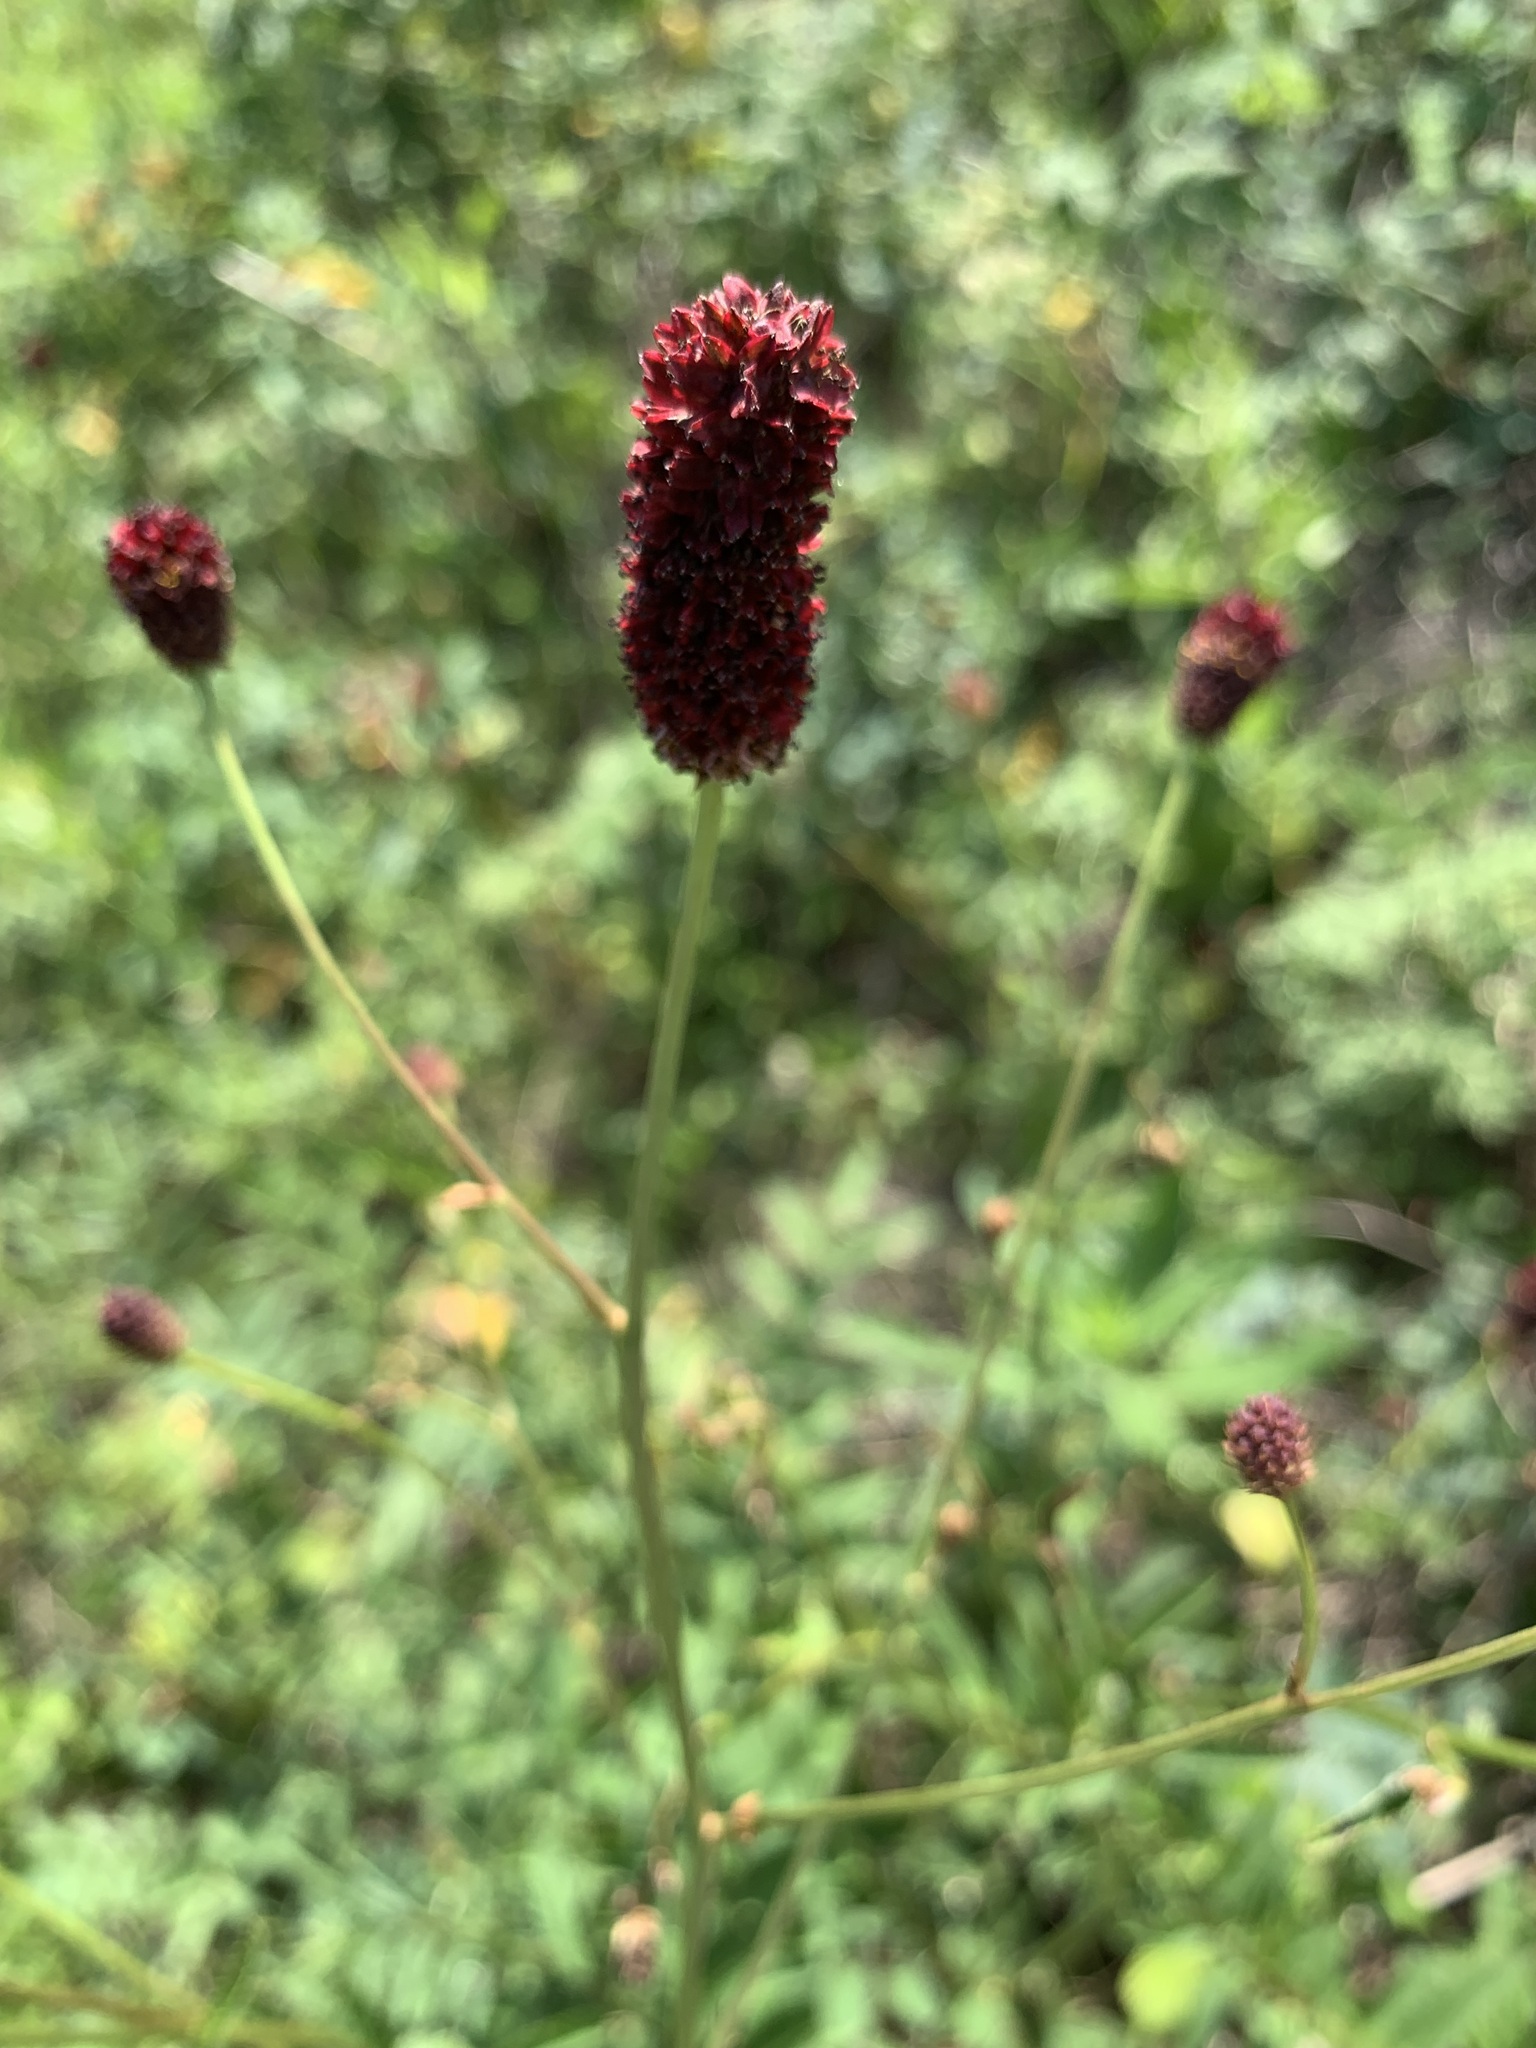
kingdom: Plantae
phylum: Tracheophyta
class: Magnoliopsida
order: Rosales
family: Rosaceae
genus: Sanguisorba
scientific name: Sanguisorba officinalis
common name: Great burnet
